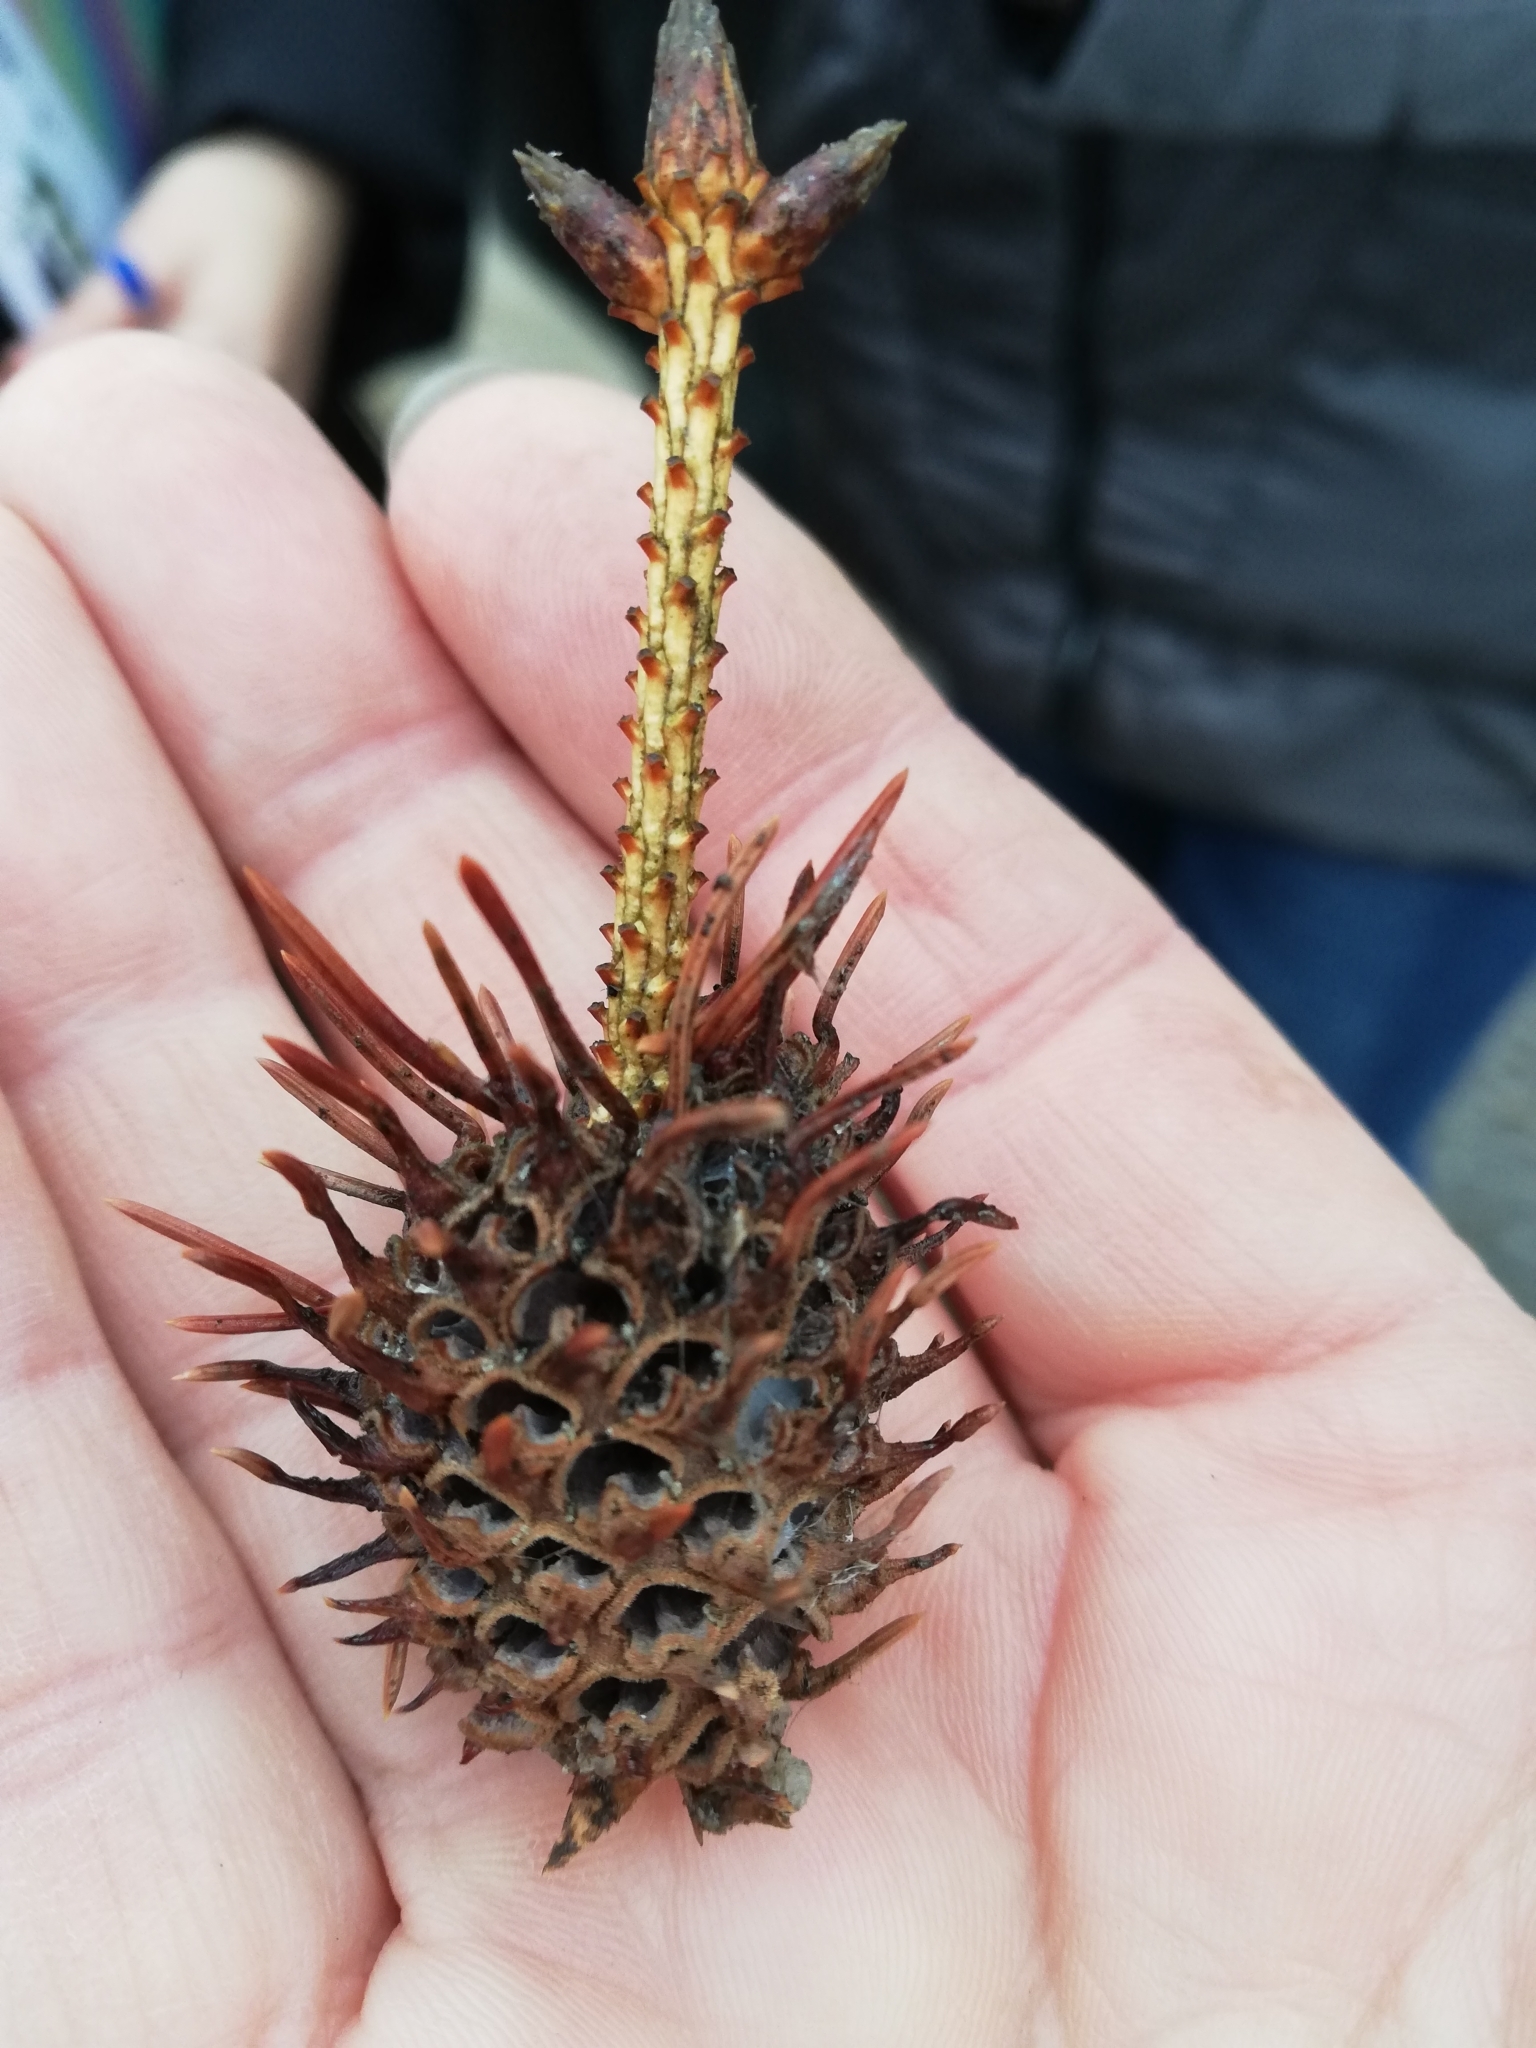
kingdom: Animalia
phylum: Arthropoda
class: Insecta
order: Hemiptera
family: Adelgidae
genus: Adelges
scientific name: Adelges laricis
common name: Pale spruce gall adelgid
